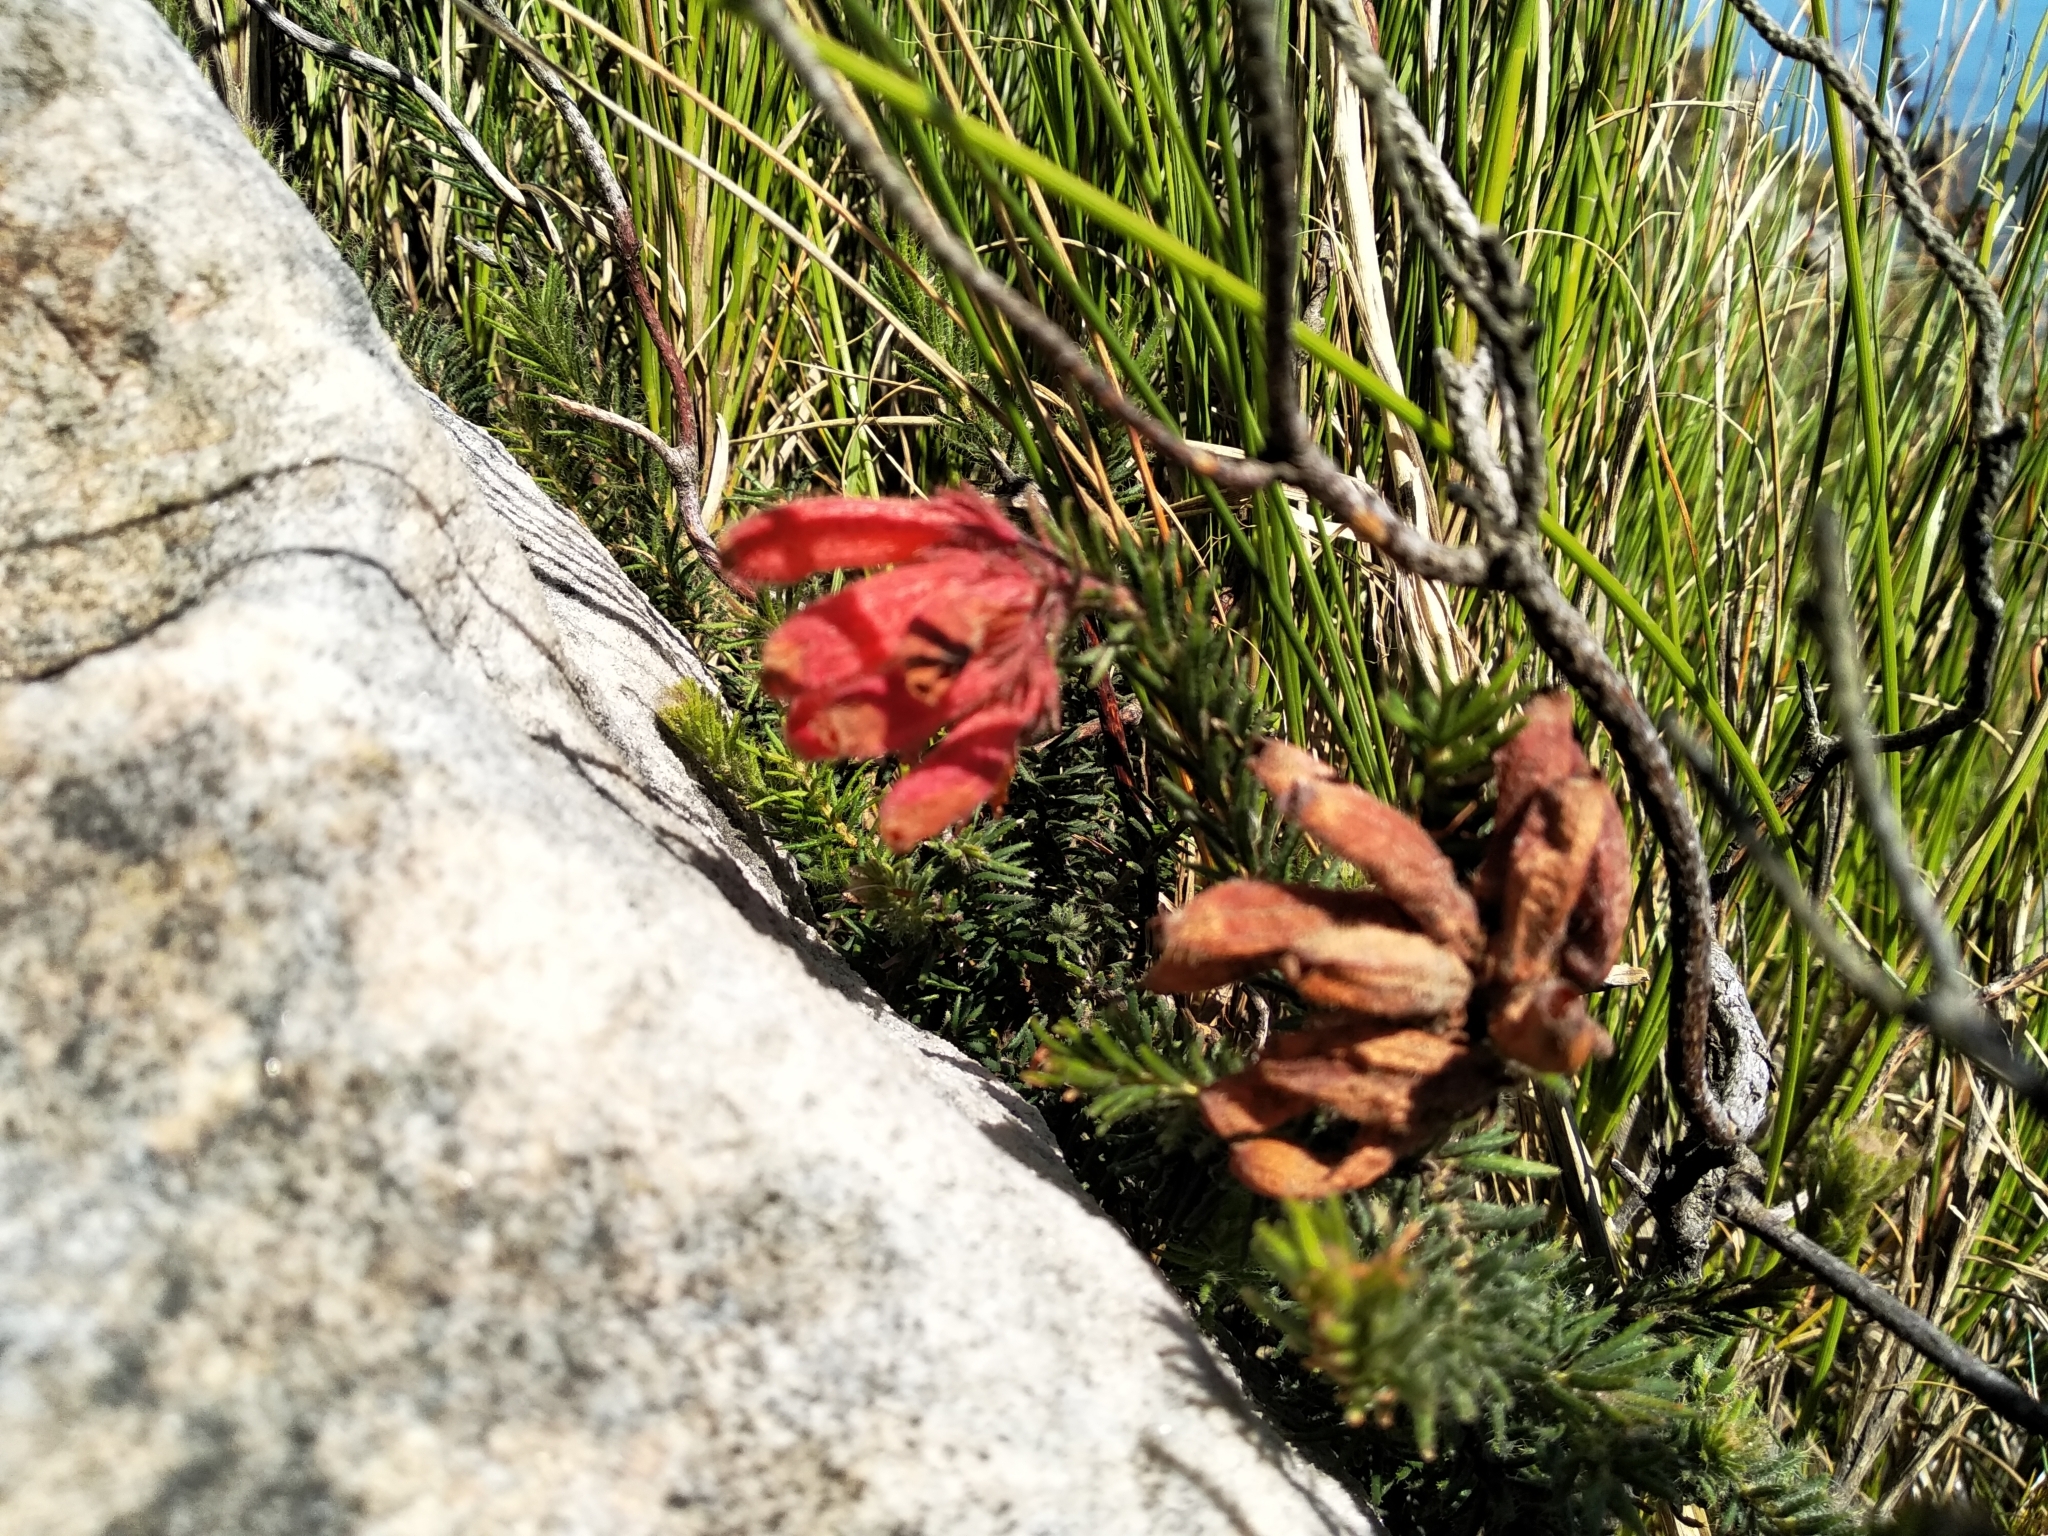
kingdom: Plantae
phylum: Tracheophyta
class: Magnoliopsida
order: Ericales
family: Ericaceae
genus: Erica
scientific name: Erica cerinthoides
